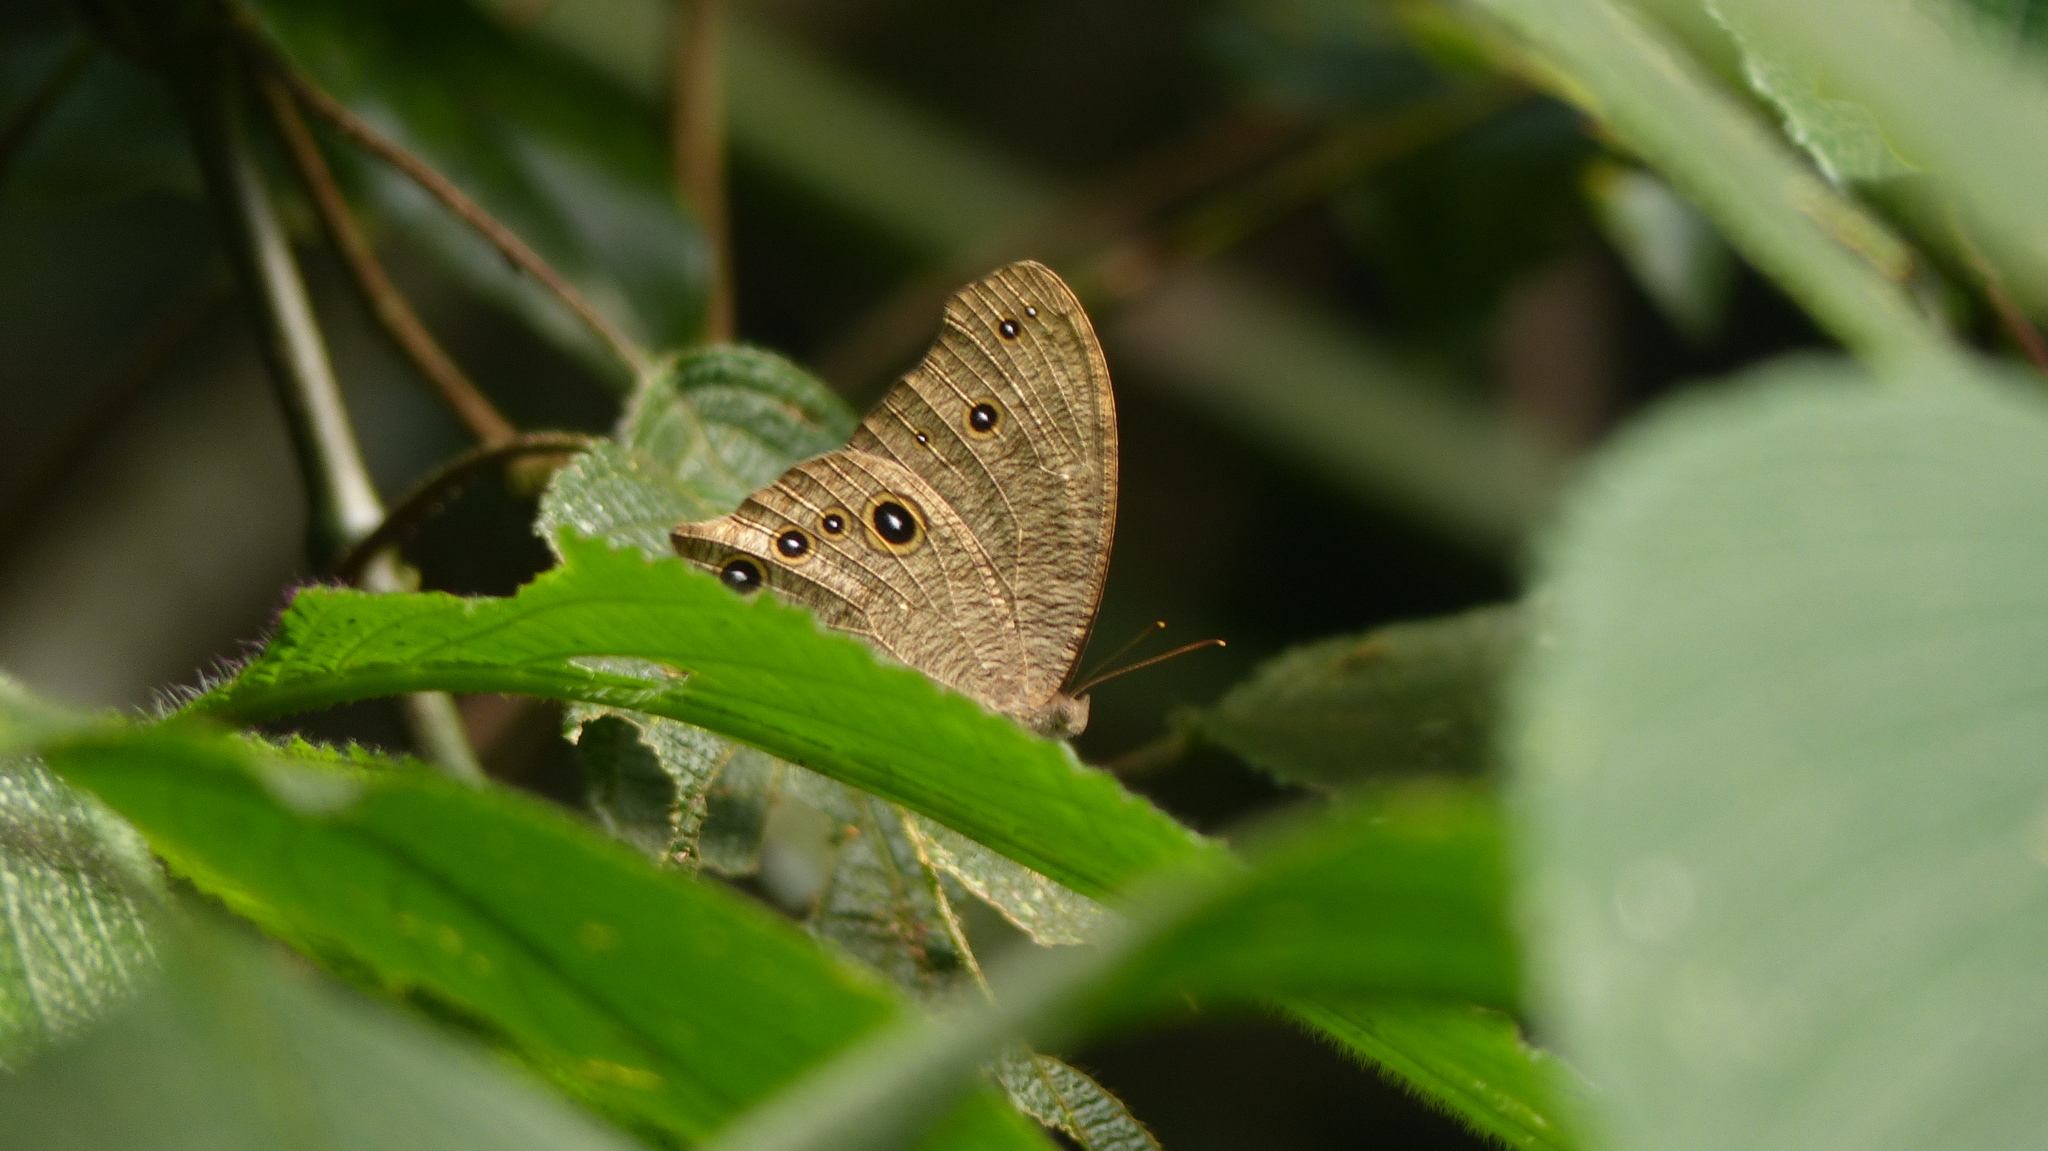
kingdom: Animalia
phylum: Arthropoda
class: Insecta
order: Lepidoptera
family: Nymphalidae
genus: Melanitis
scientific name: Melanitis leda
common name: Twilight brown
